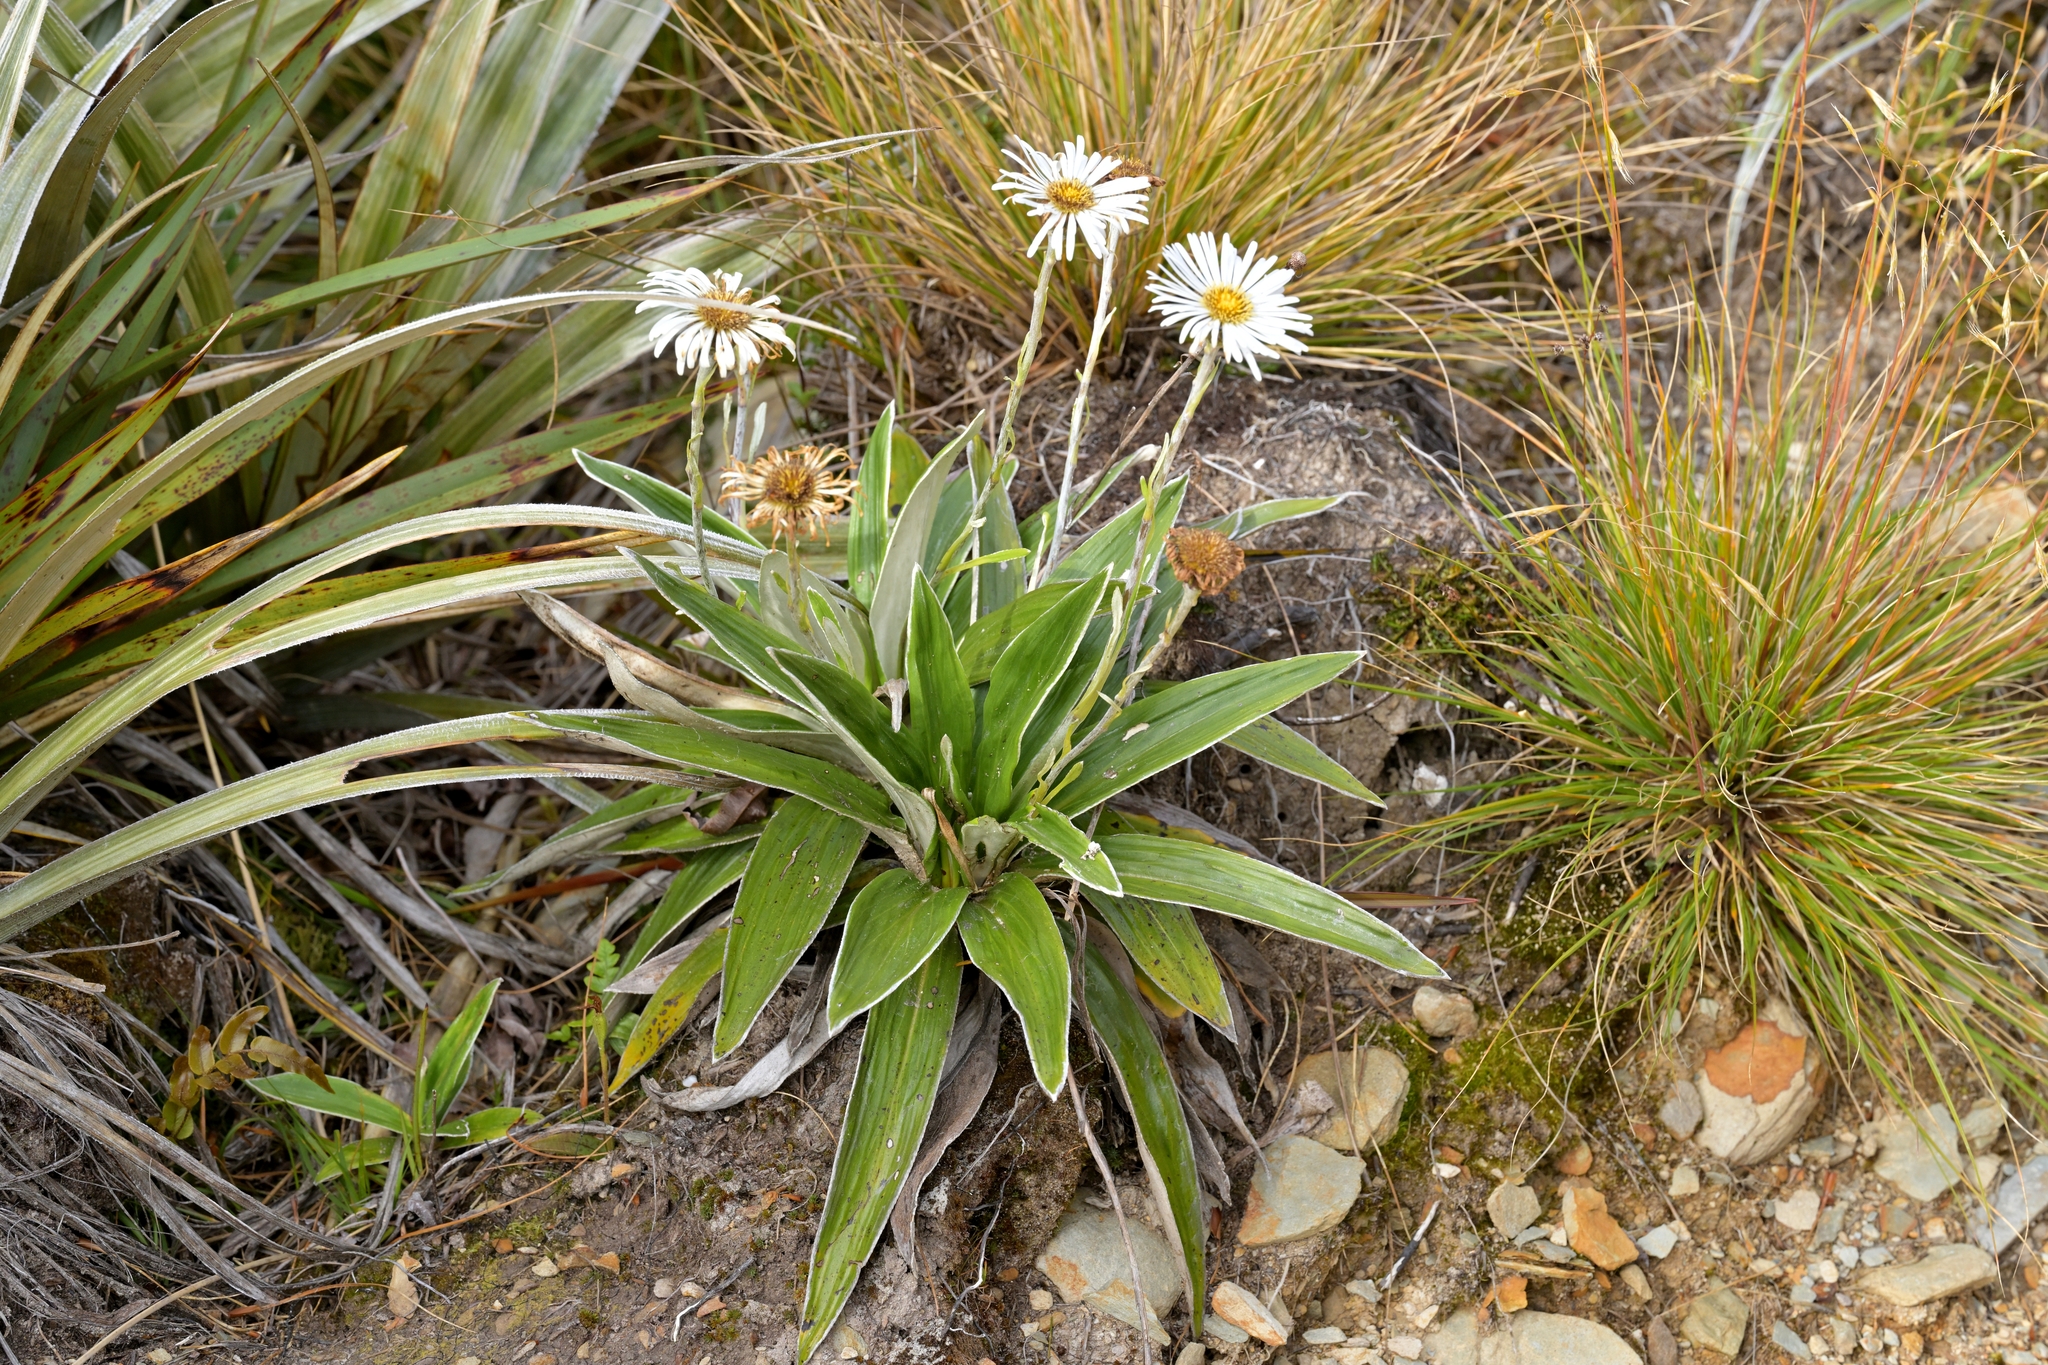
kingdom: Plantae
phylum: Tracheophyta
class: Magnoliopsida
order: Asterales
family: Asteraceae
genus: Celmisia
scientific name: Celmisia semicordata
